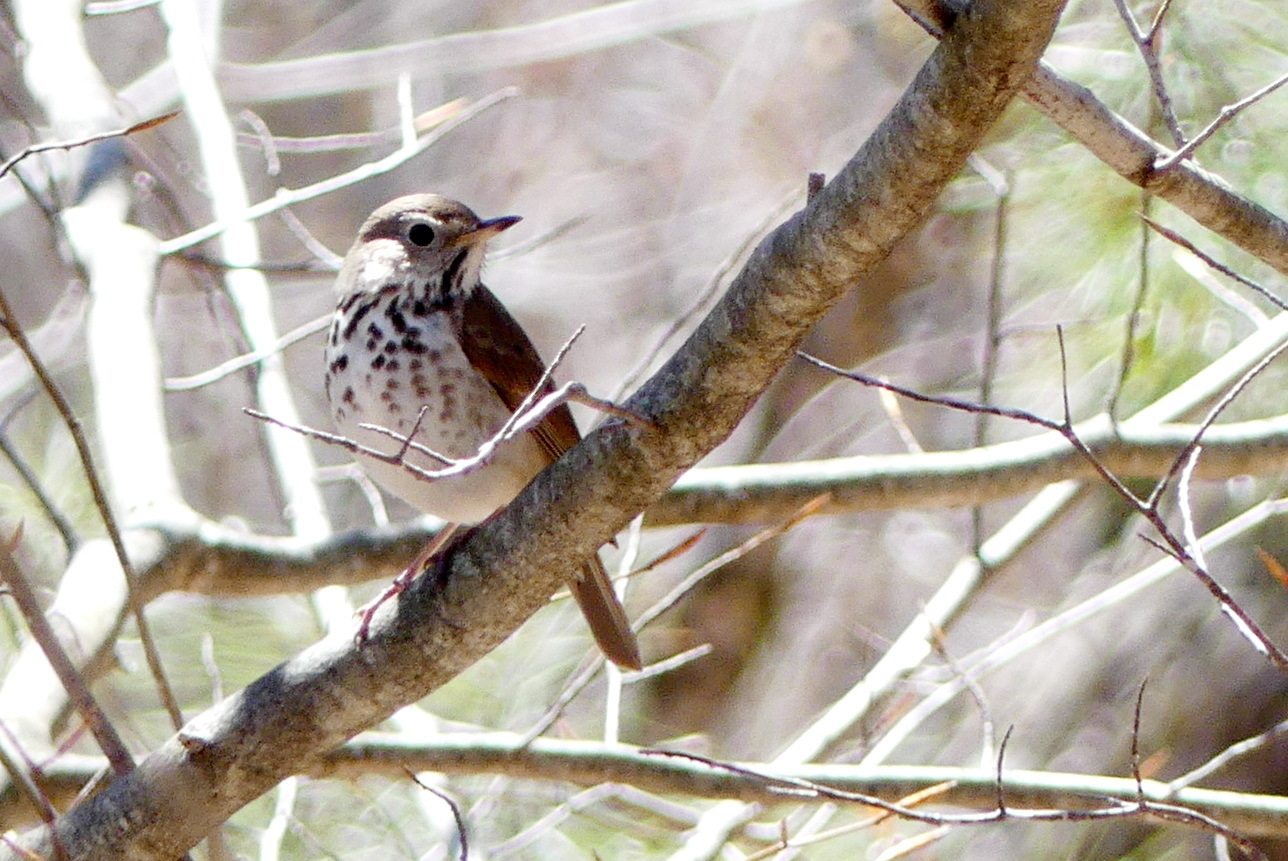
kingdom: Animalia
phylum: Chordata
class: Aves
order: Passeriformes
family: Turdidae
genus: Catharus
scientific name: Catharus guttatus
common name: Hermit thrush
